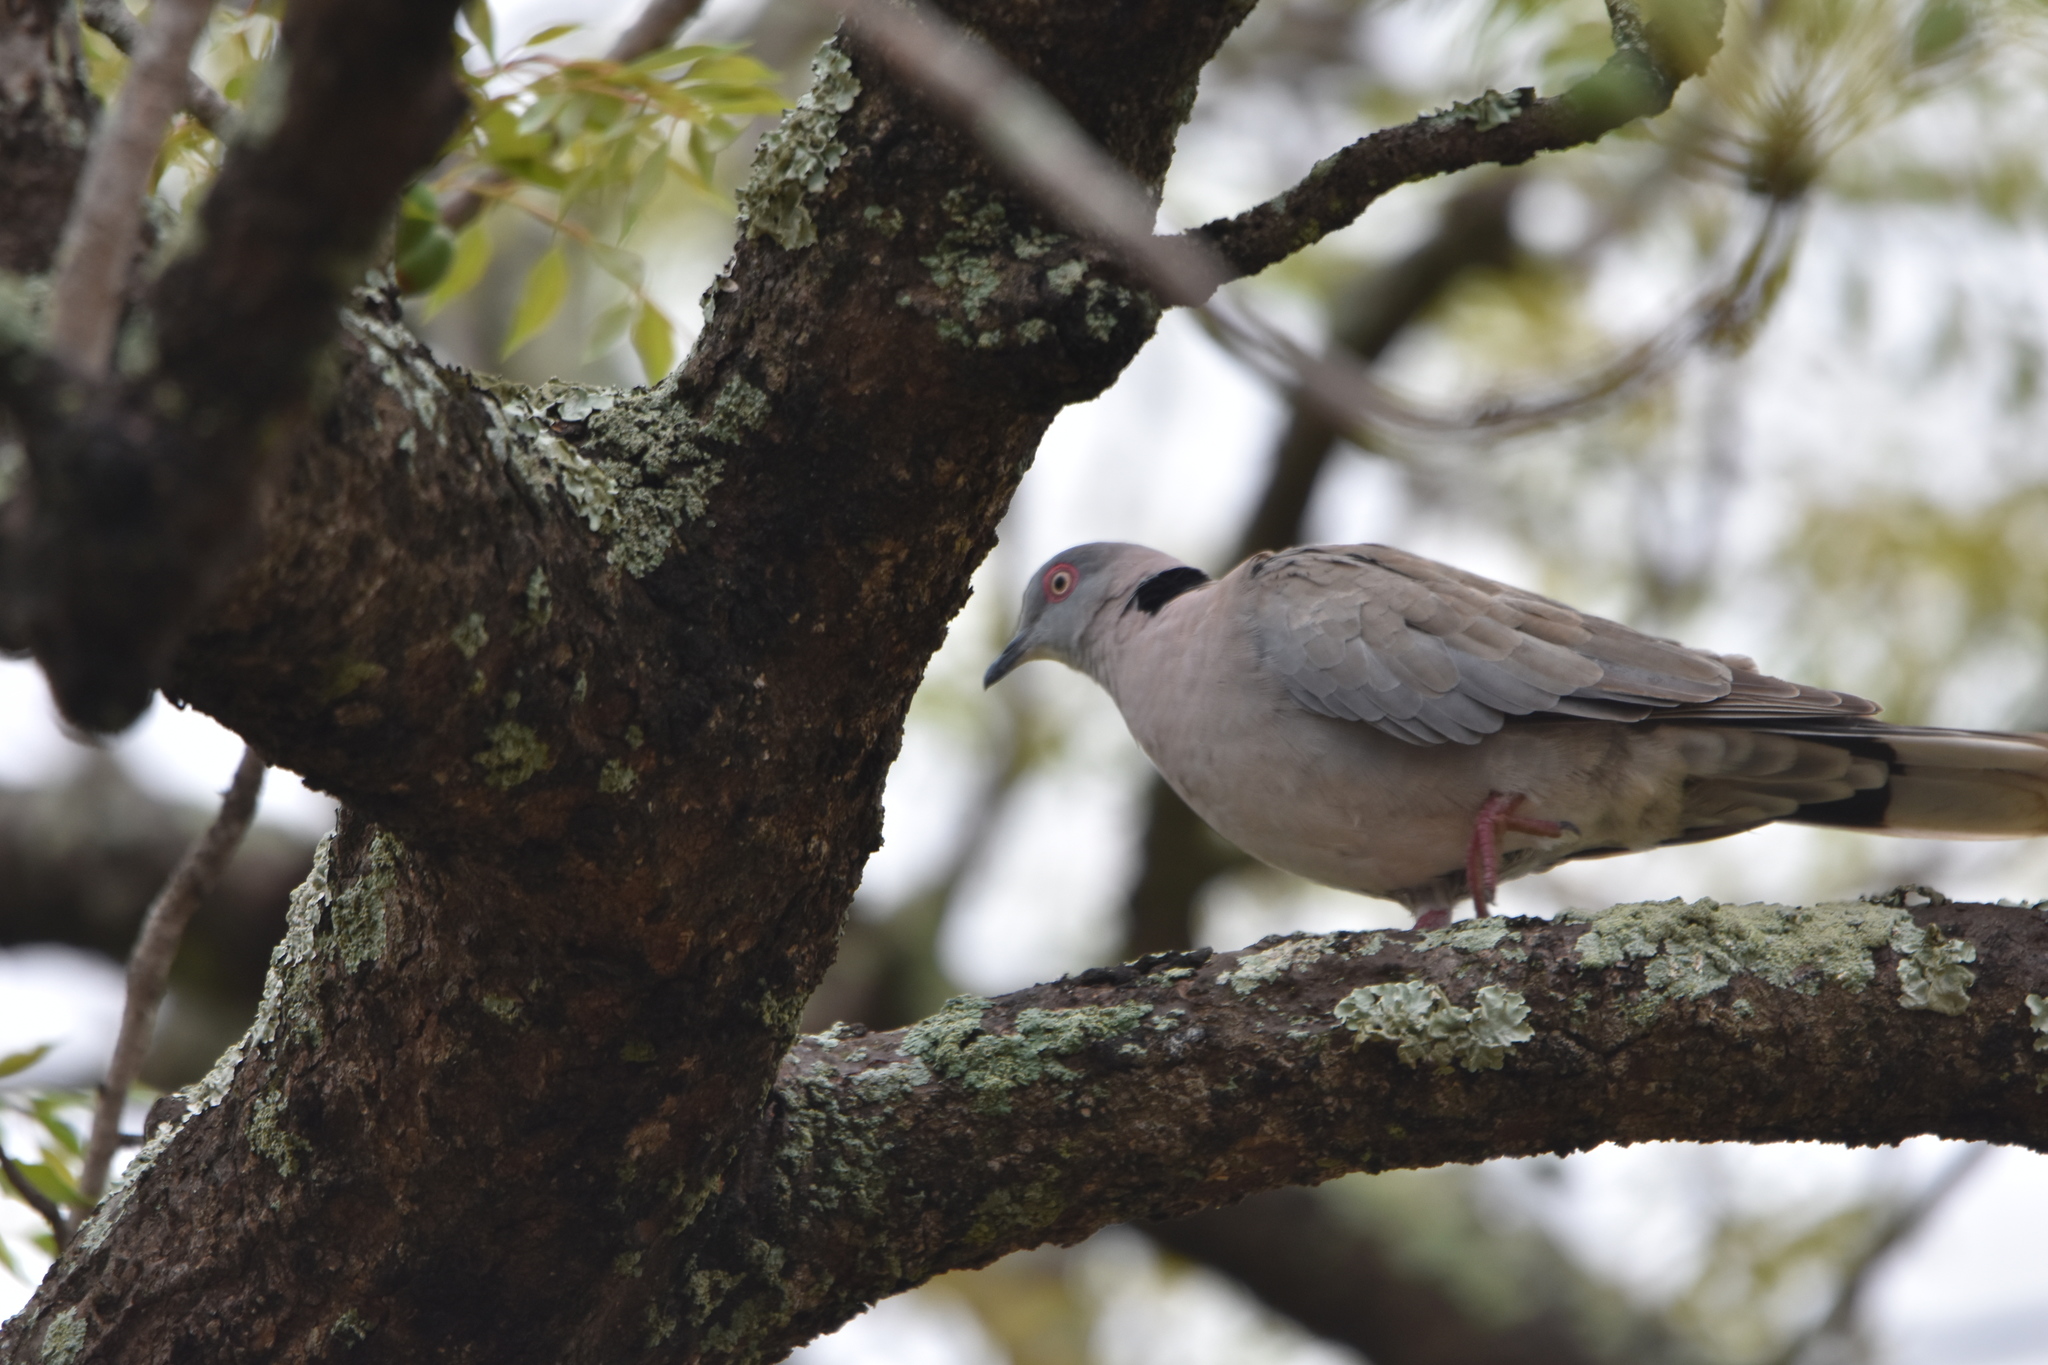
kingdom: Animalia
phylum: Chordata
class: Aves
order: Columbiformes
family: Columbidae
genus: Streptopelia
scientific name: Streptopelia decipiens
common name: Mourning collared dove
